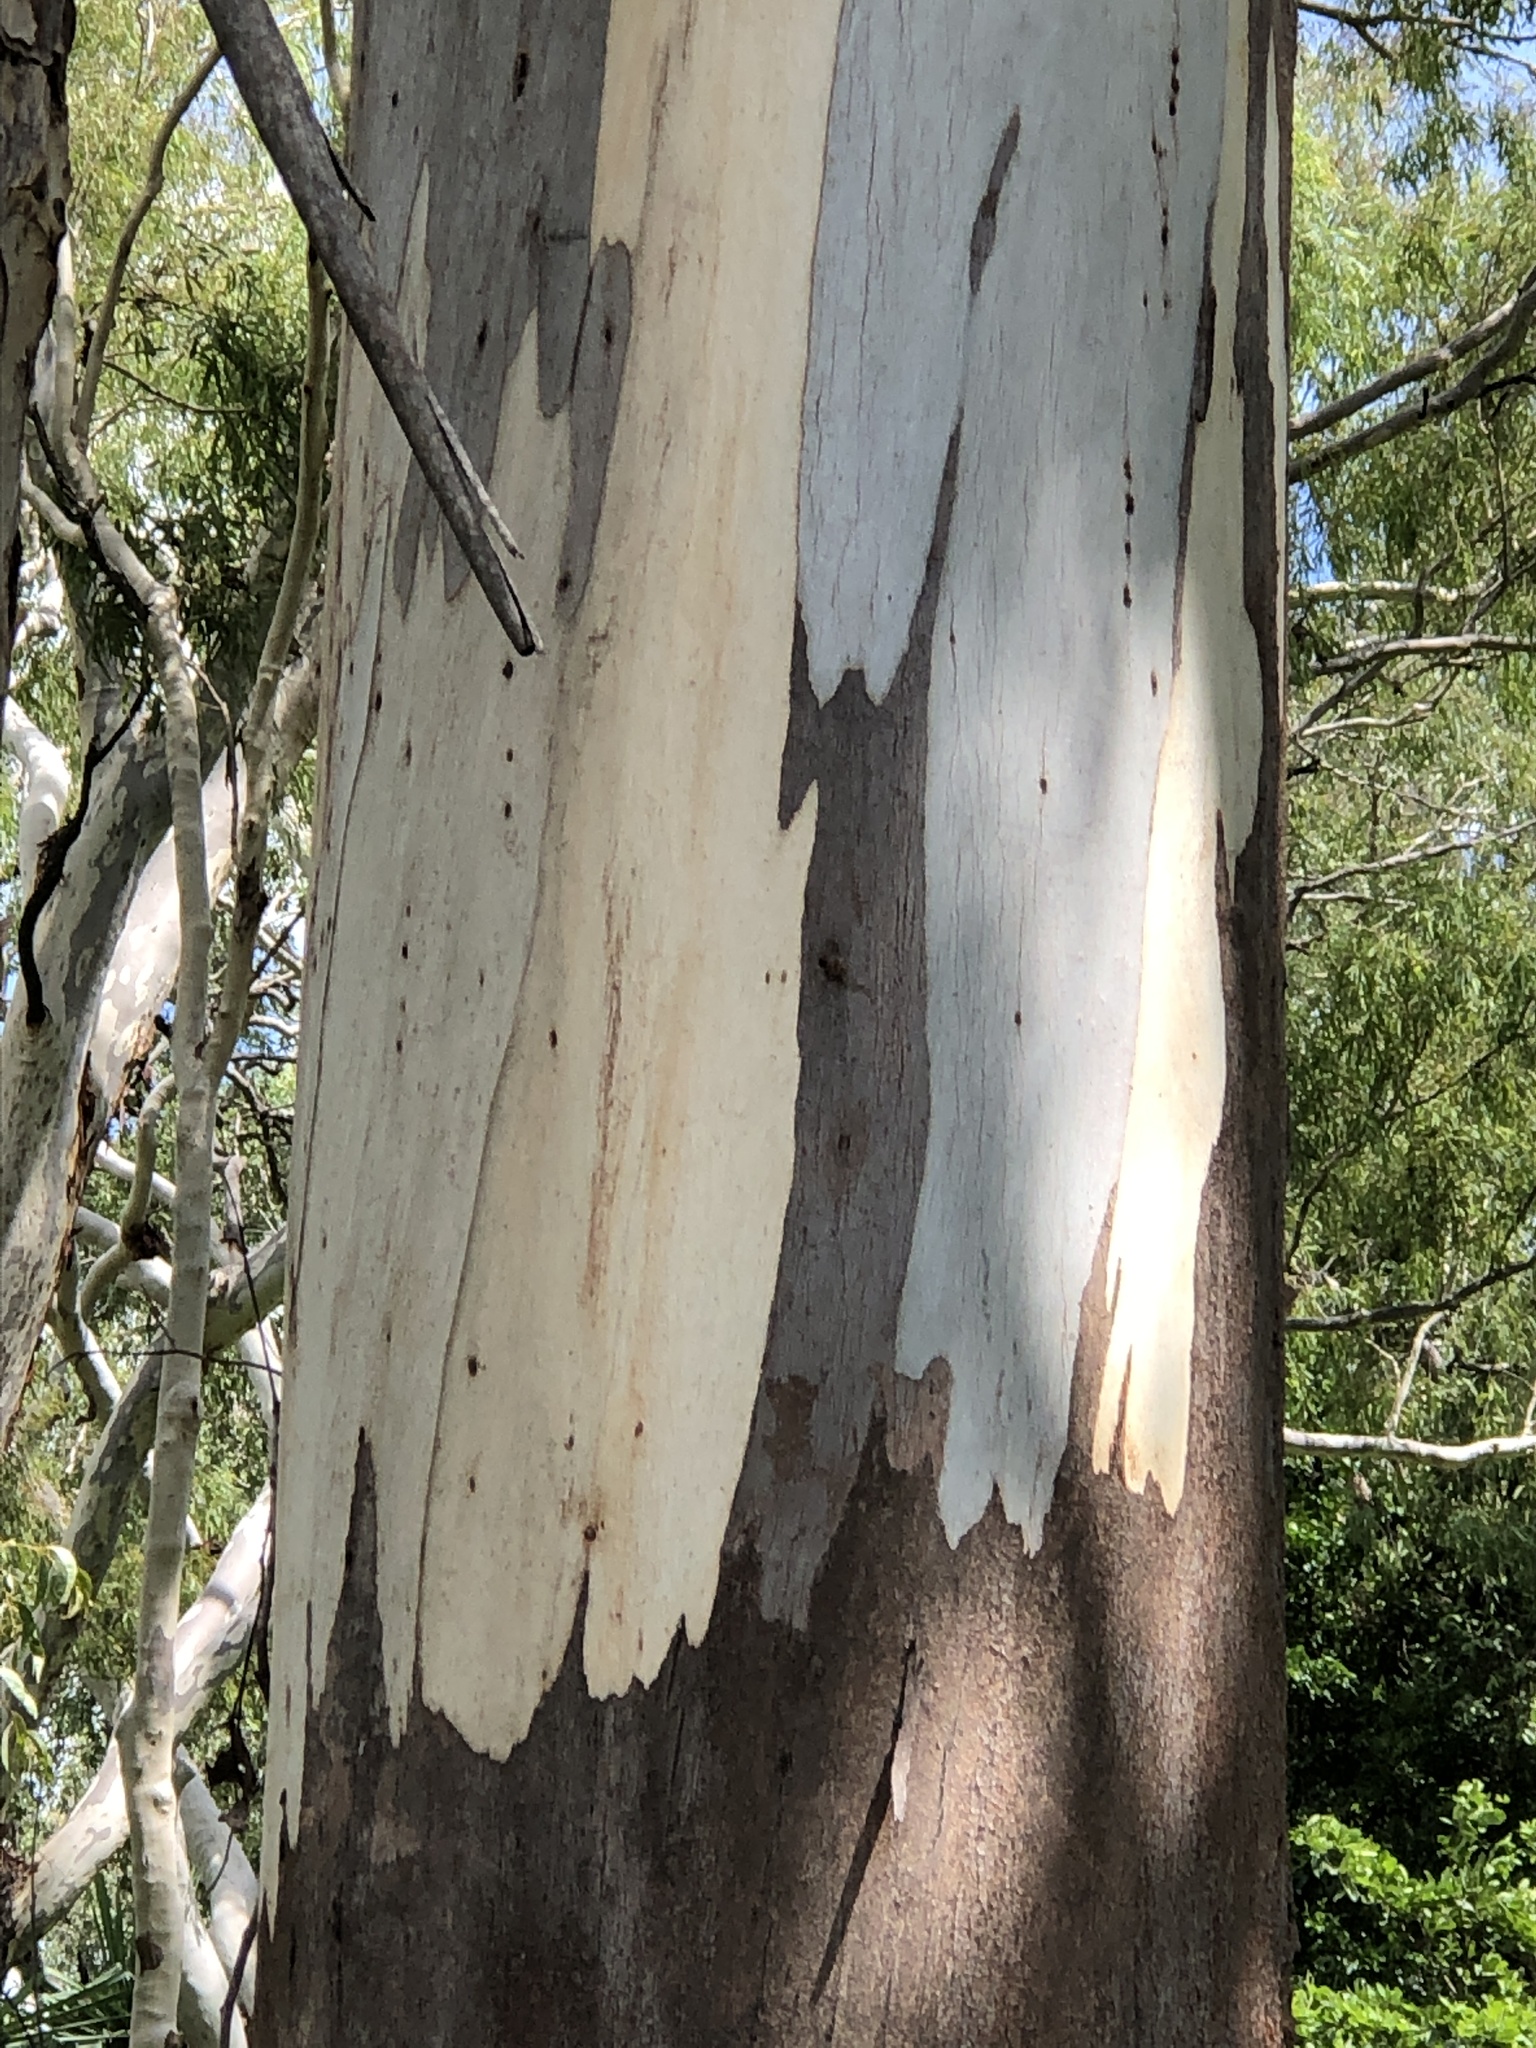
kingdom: Plantae
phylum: Tracheophyta
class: Magnoliopsida
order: Myrtales
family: Myrtaceae
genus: Eucalyptus
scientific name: Eucalyptus tereticornis
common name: Forest redgum
